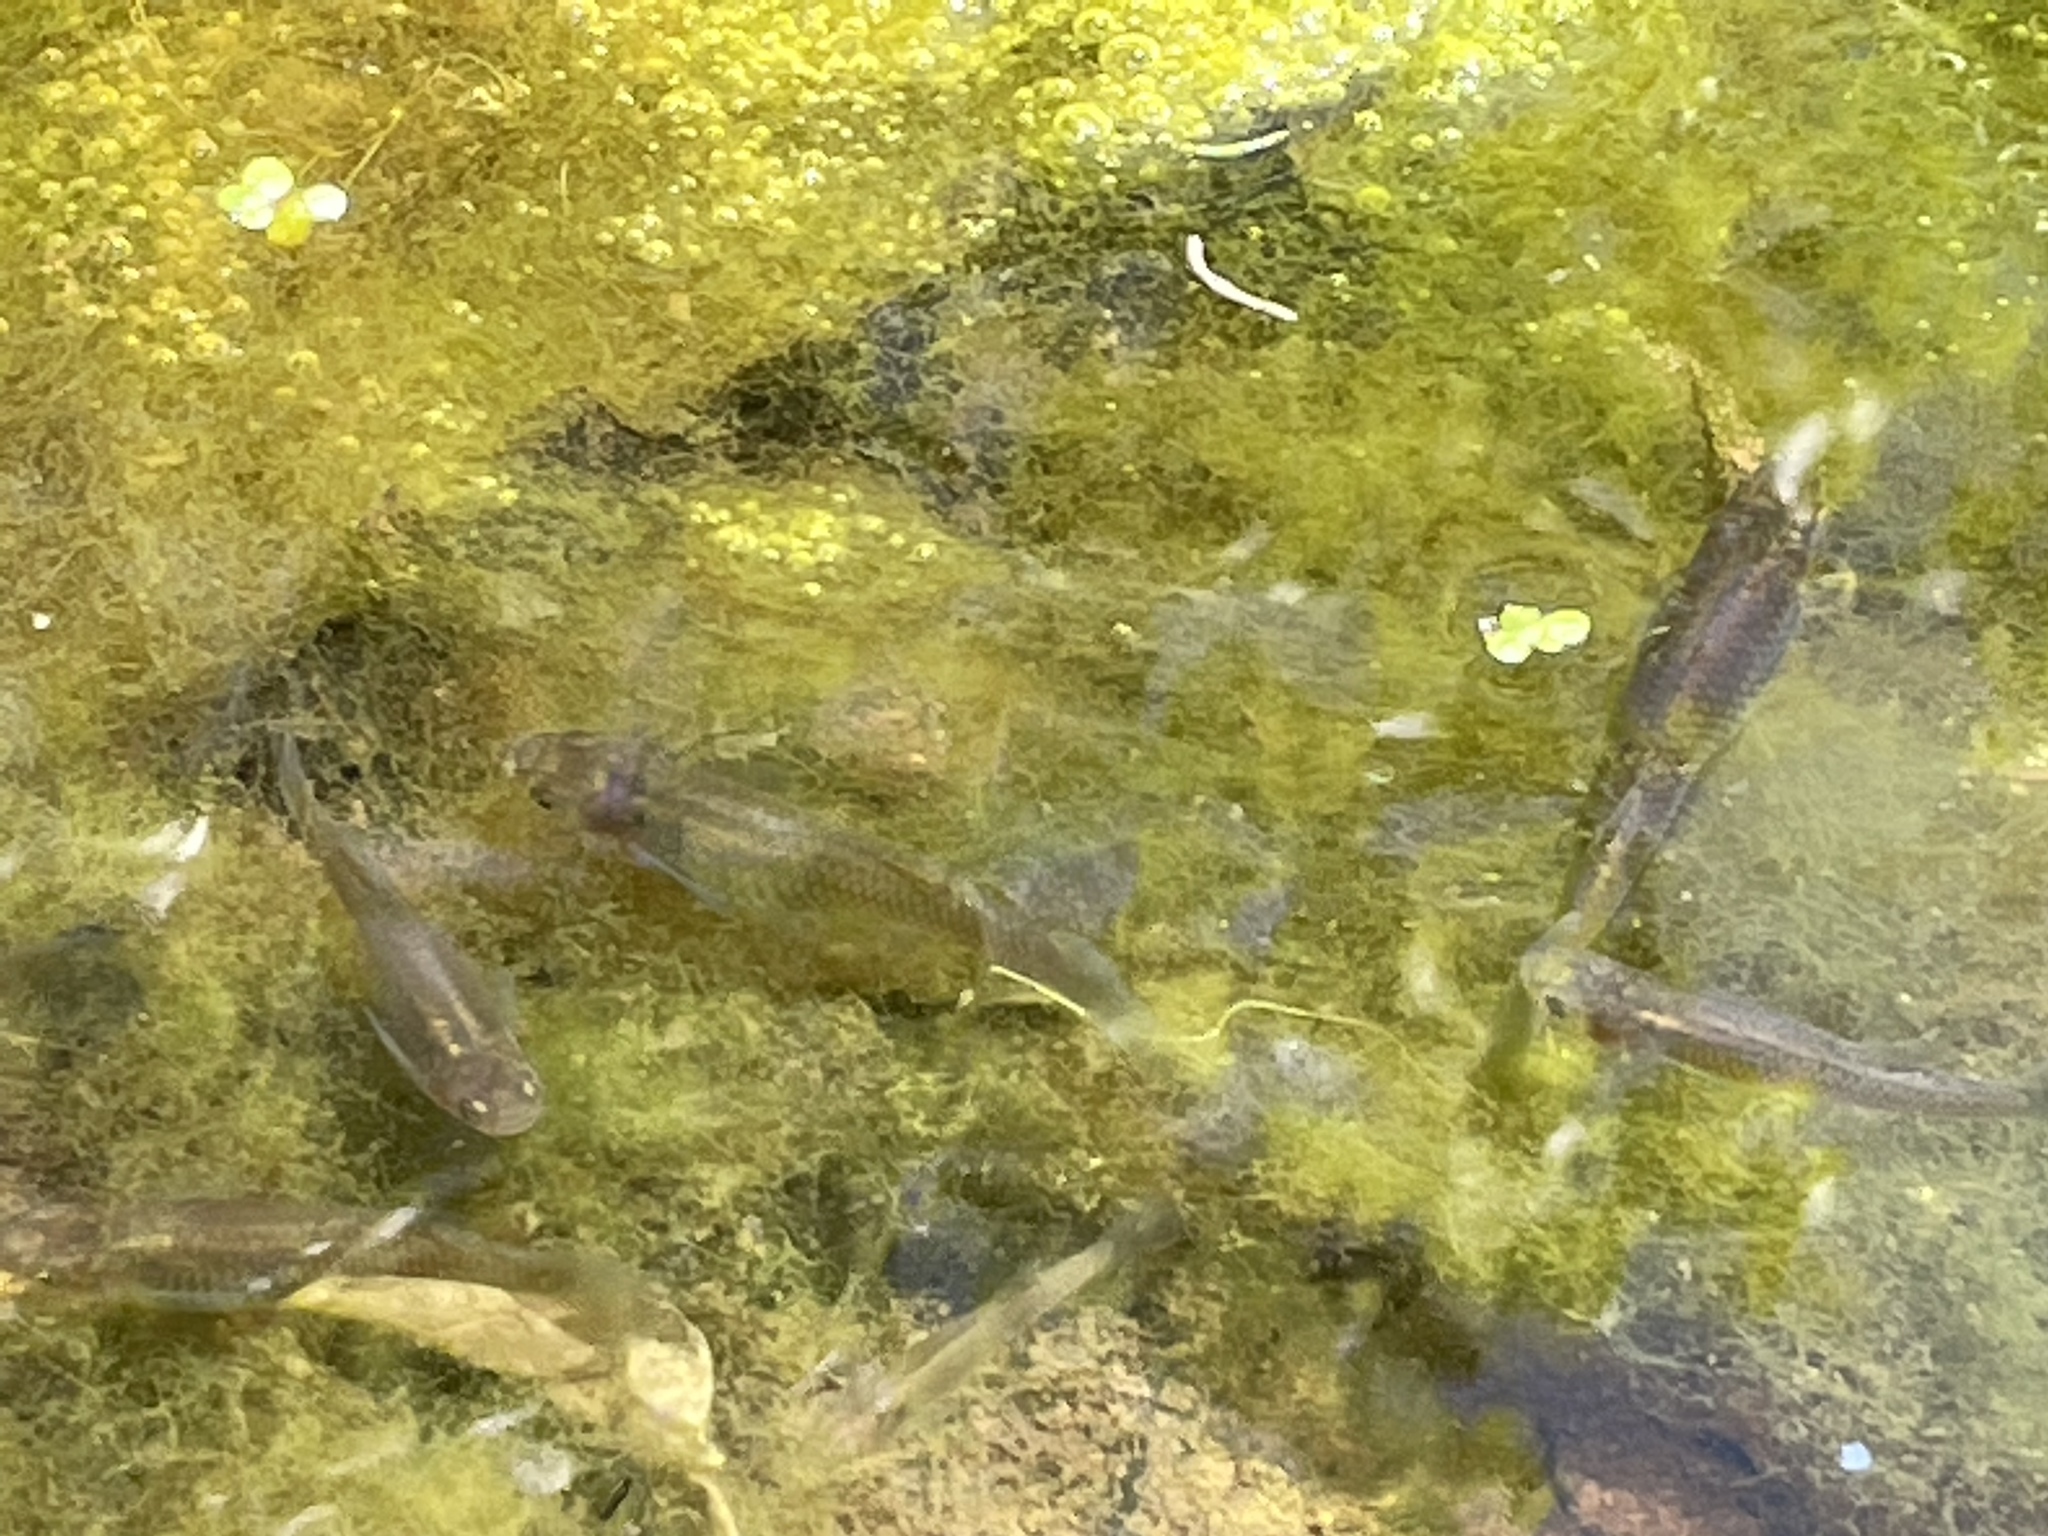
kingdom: Animalia
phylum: Chordata
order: Cyprinodontiformes
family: Poeciliidae
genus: Gambusia
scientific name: Gambusia affinis
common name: Mosquitofish
